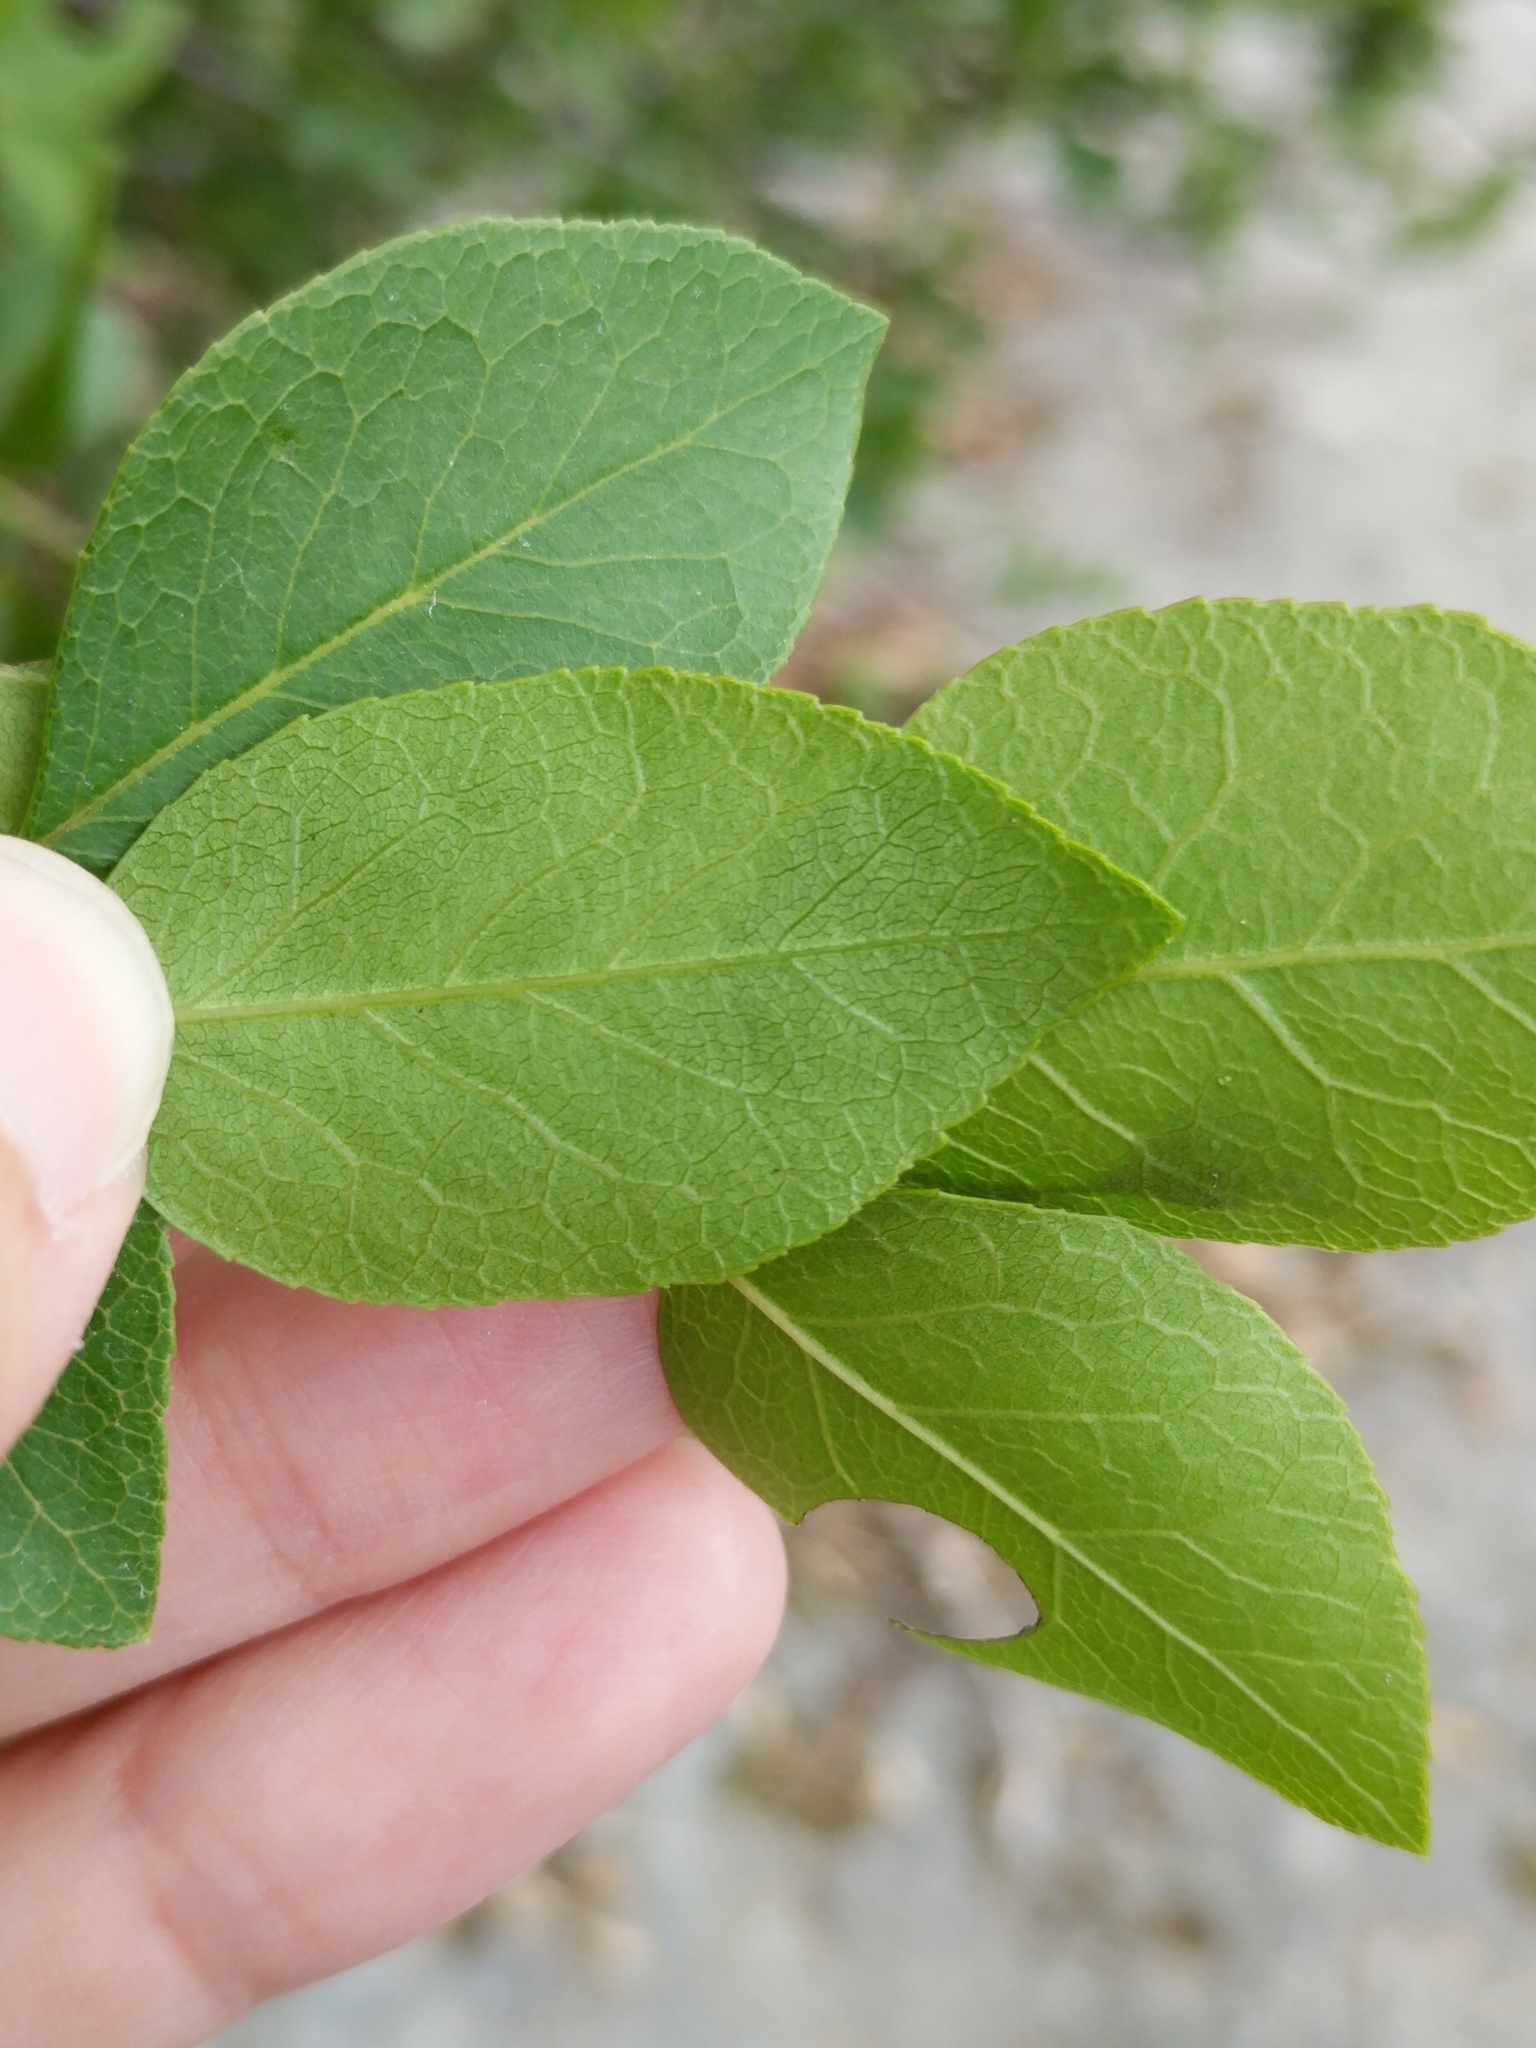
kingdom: Plantae
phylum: Tracheophyta
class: Magnoliopsida
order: Lamiales
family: Oleaceae
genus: Forestiera
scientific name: Forestiera reticulata
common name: Netleaf swamp-privet
